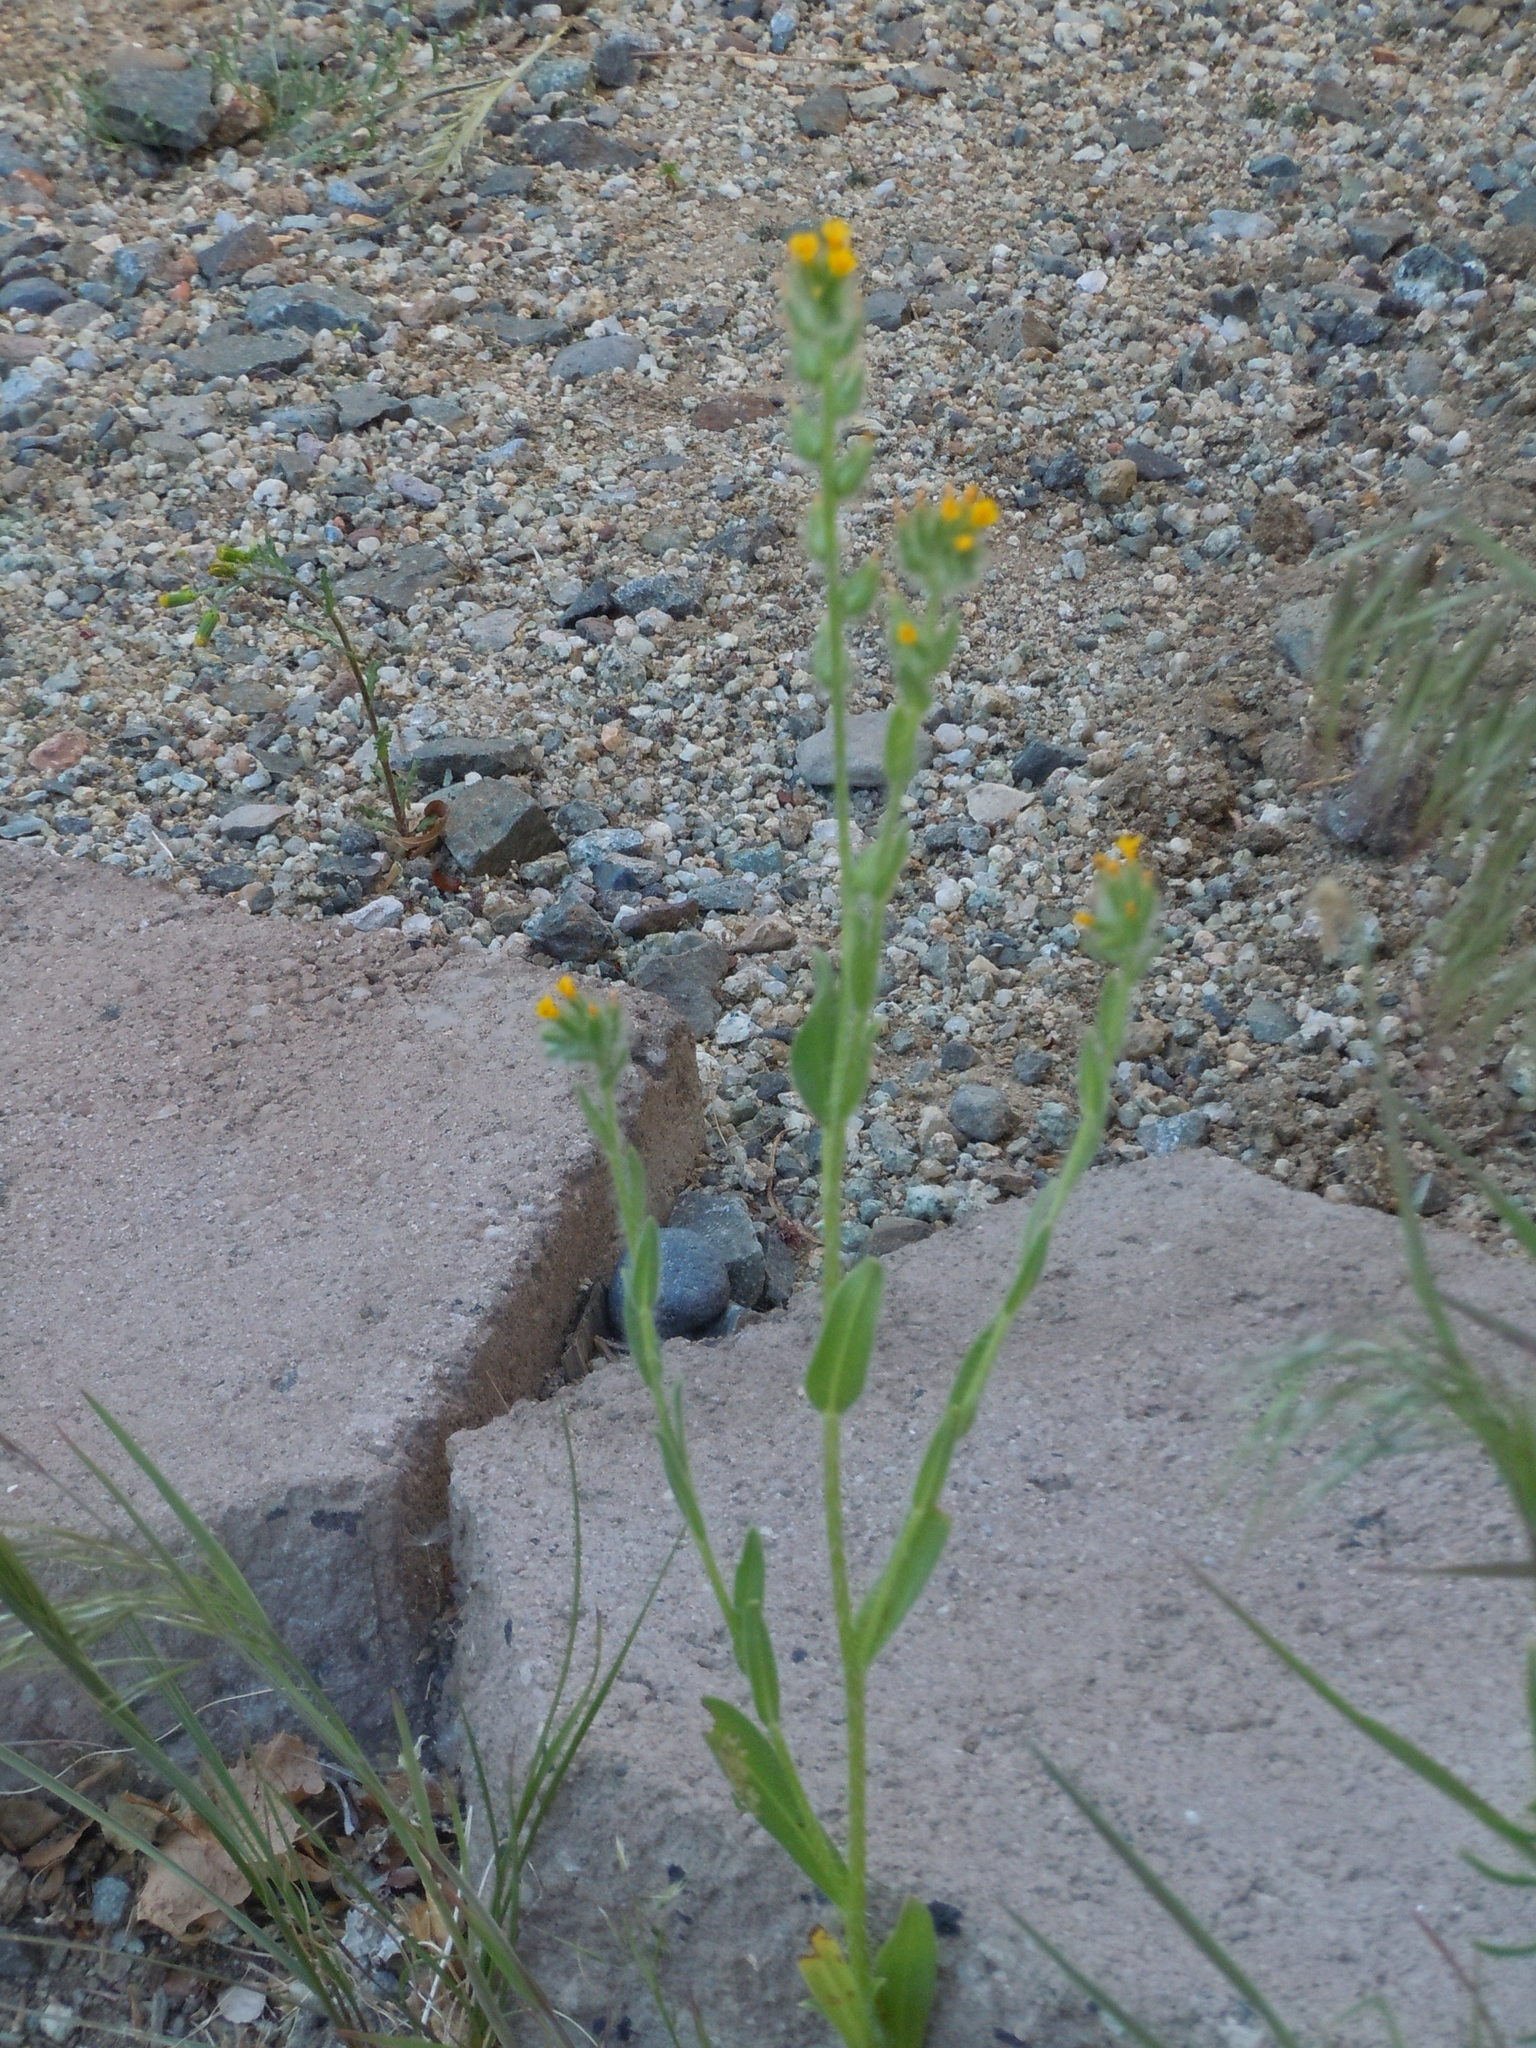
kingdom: Plantae
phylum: Tracheophyta
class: Magnoliopsida
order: Boraginales
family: Boraginaceae
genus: Amsinckia
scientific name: Amsinckia tessellata
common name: Tessellate fiddleneck
